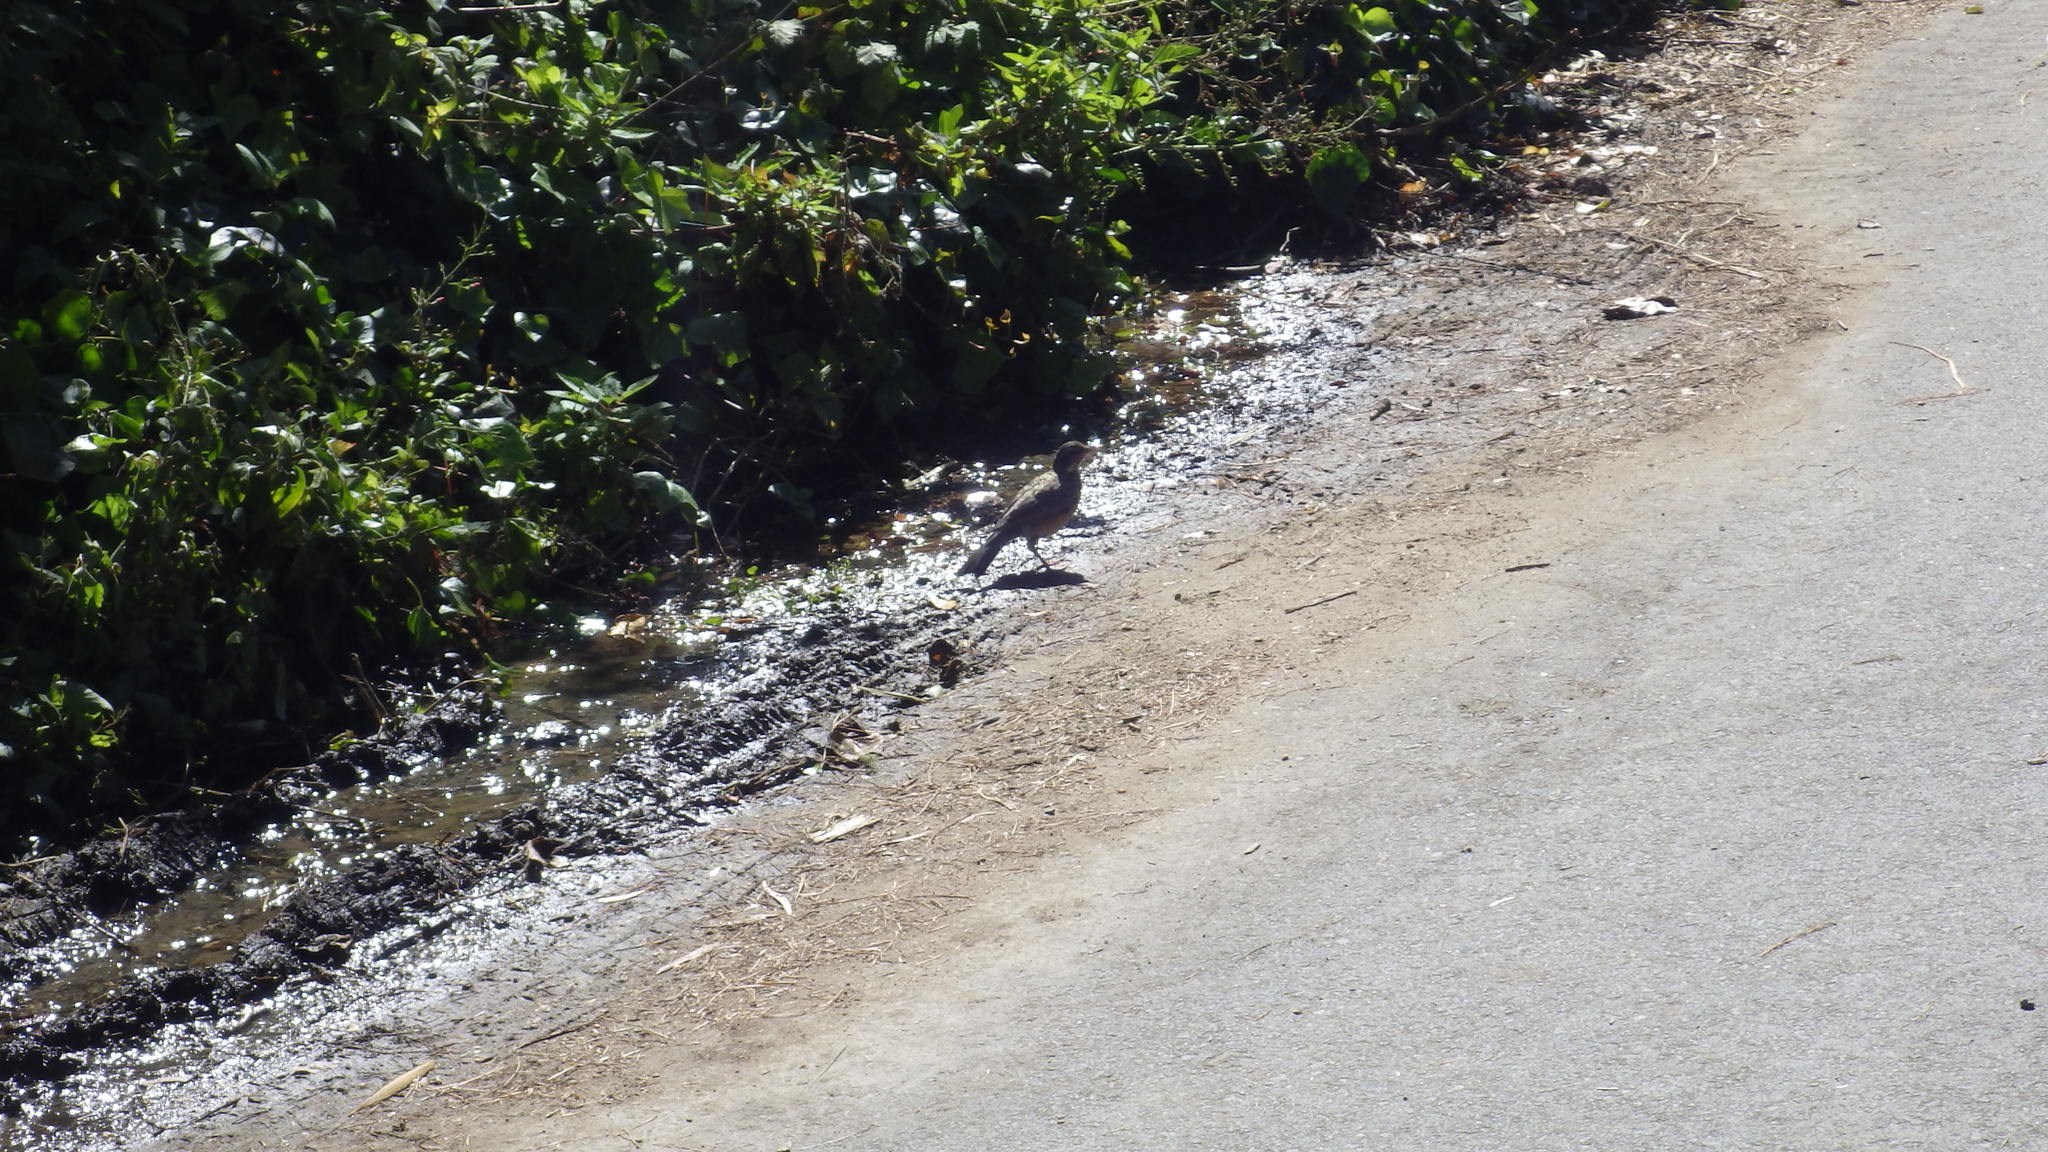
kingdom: Animalia
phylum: Chordata
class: Aves
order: Passeriformes
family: Turdidae
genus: Turdus
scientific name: Turdus migratorius
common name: American robin
